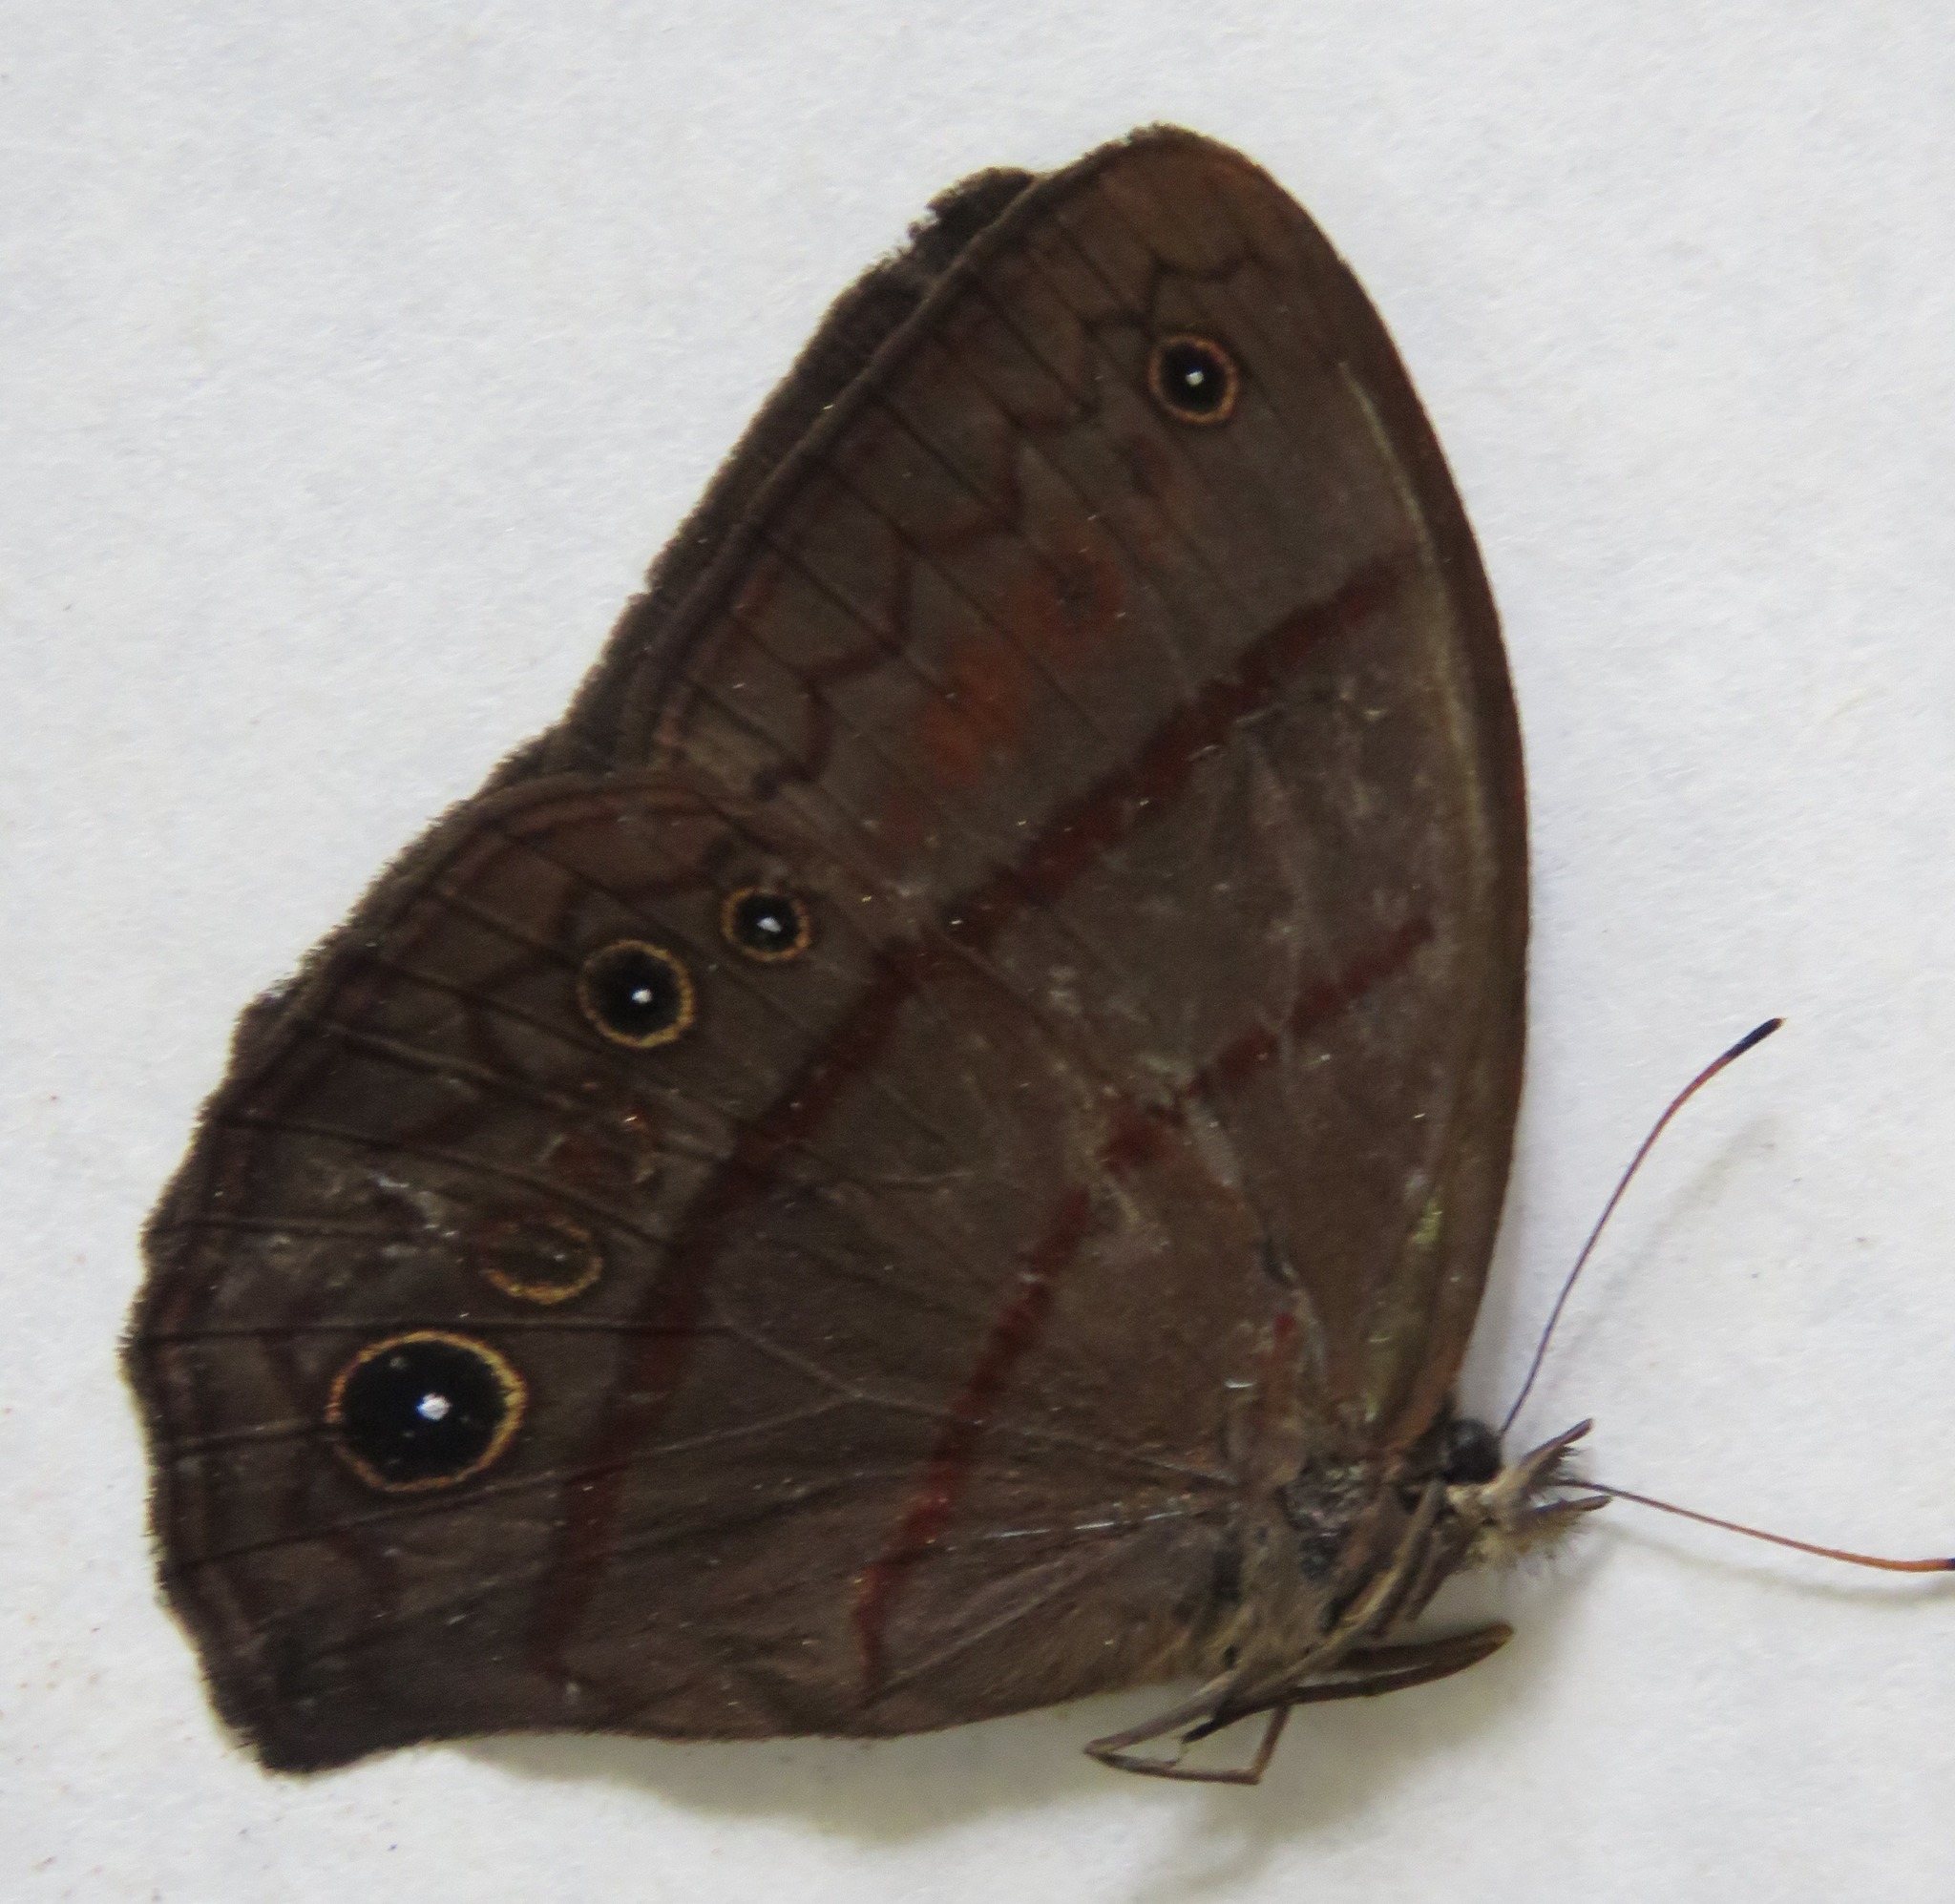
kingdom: Animalia
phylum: Arthropoda
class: Insecta
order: Lepidoptera
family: Nymphalidae
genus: Satyrotaygetis
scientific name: Satyrotaygetis satyrina
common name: Wide-bordered satyr
